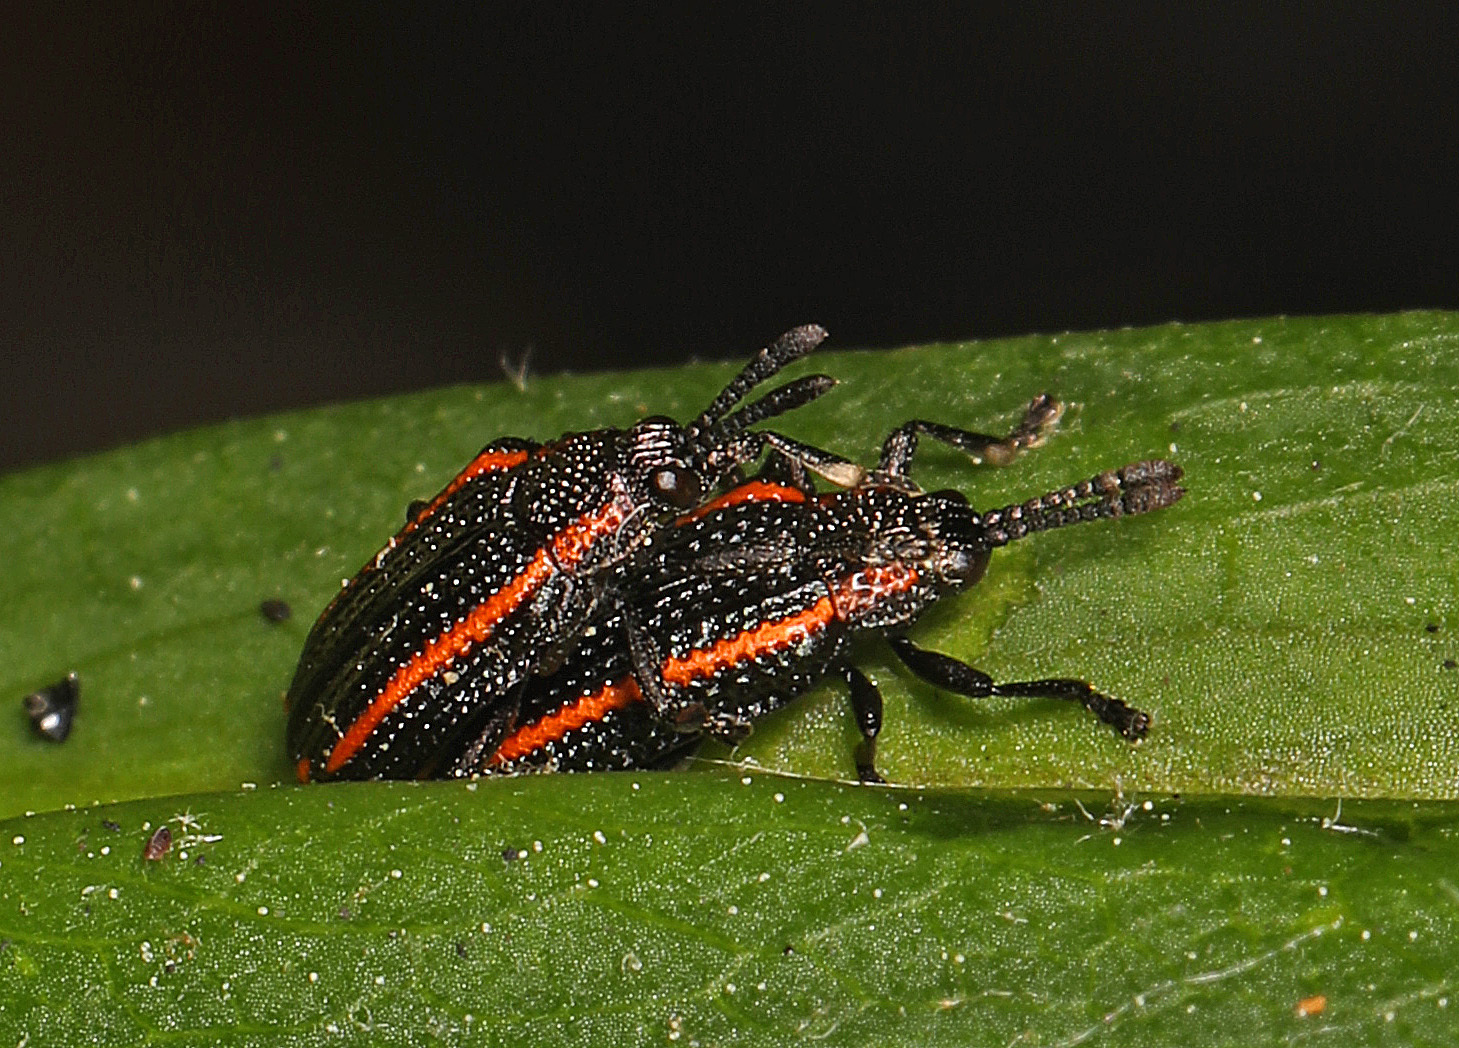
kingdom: Animalia
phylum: Arthropoda
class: Insecta
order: Coleoptera
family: Chrysomelidae
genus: Microrhopala
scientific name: Microrhopala xerene
